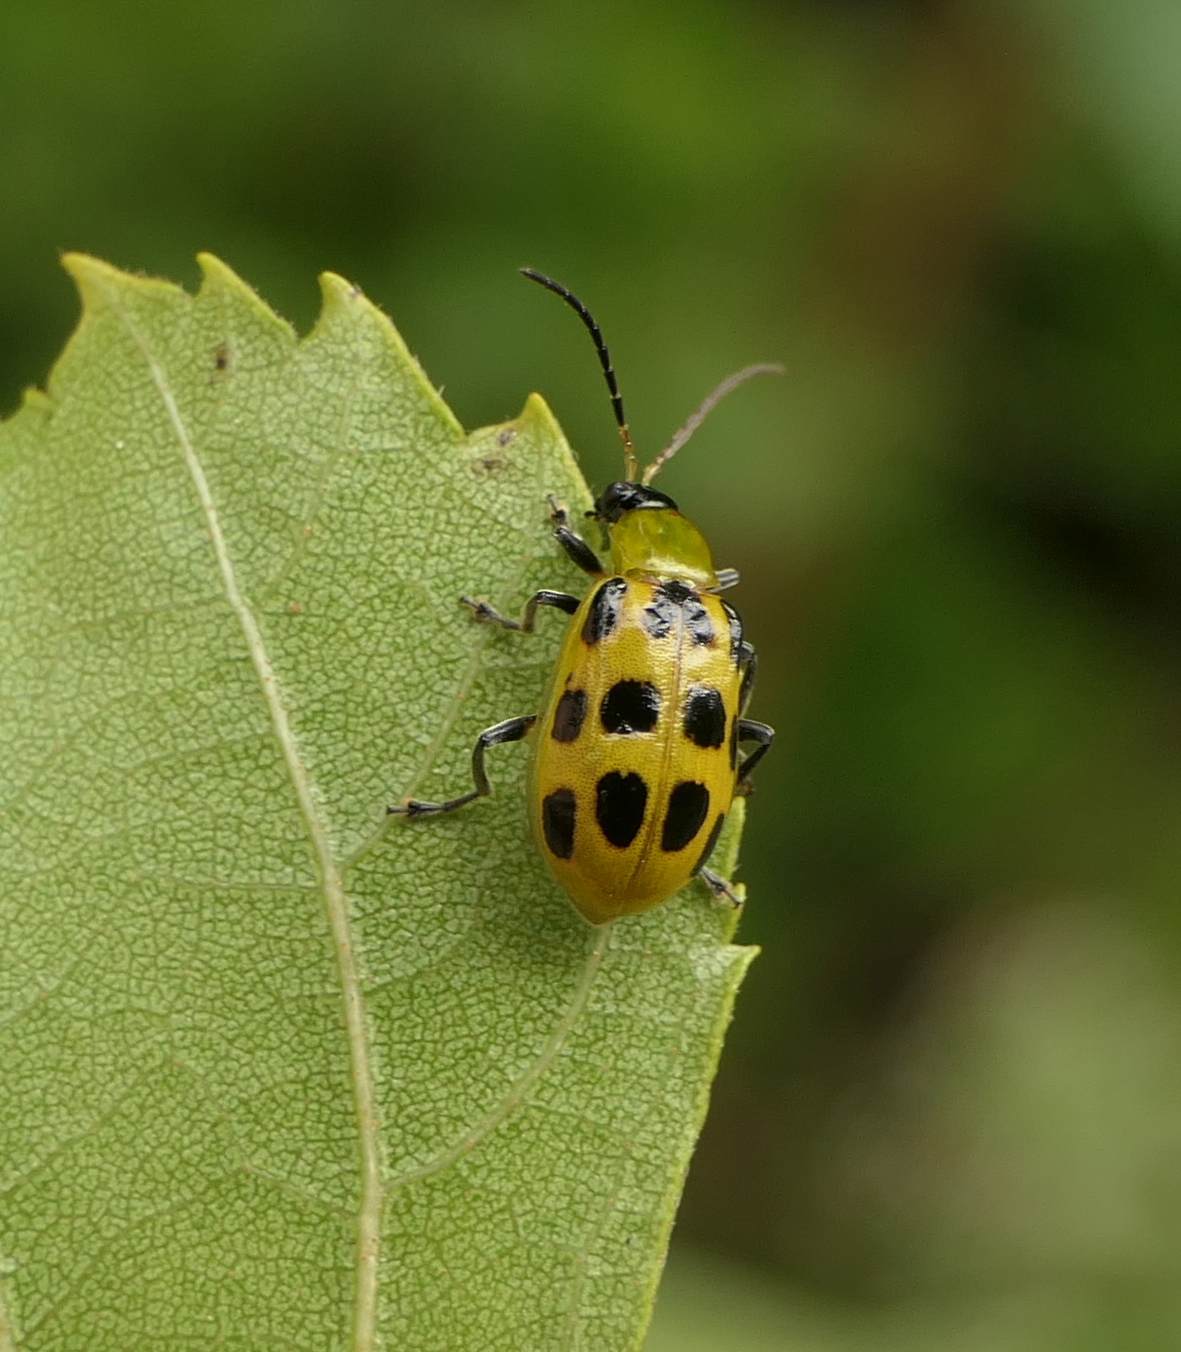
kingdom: Animalia
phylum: Arthropoda
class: Insecta
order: Coleoptera
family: Chrysomelidae
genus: Diabrotica
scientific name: Diabrotica undecimpunctata
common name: Spotted cucumber beetle
